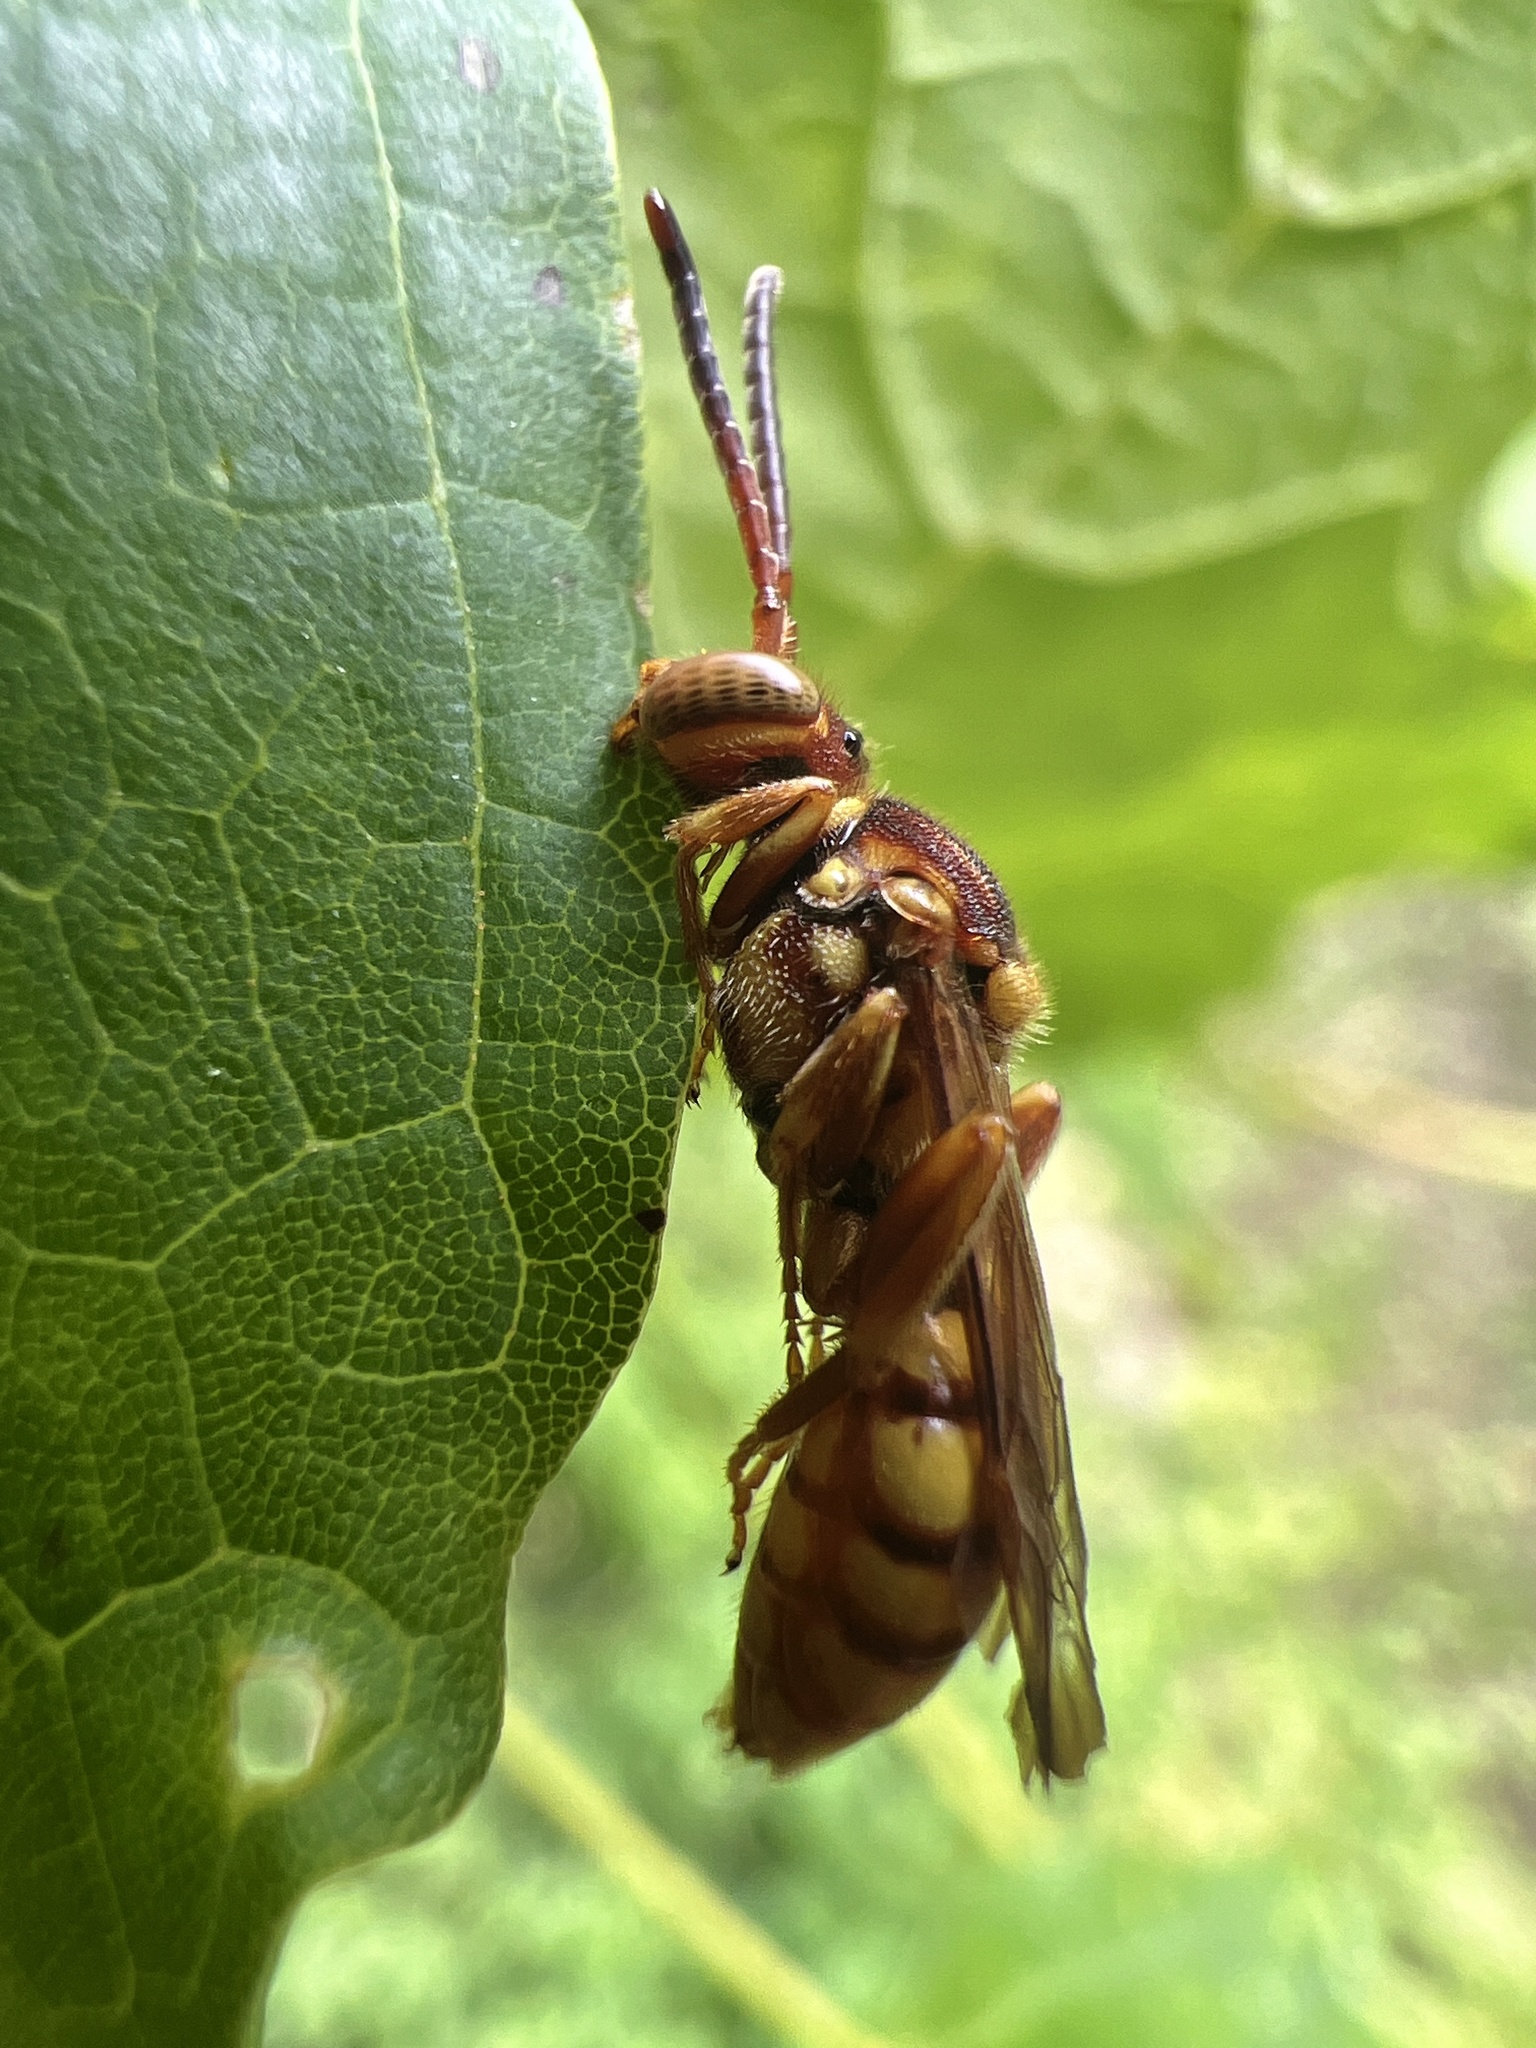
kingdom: Animalia
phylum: Arthropoda
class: Insecta
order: Hymenoptera
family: Apidae
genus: Nomada
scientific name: Nomada
